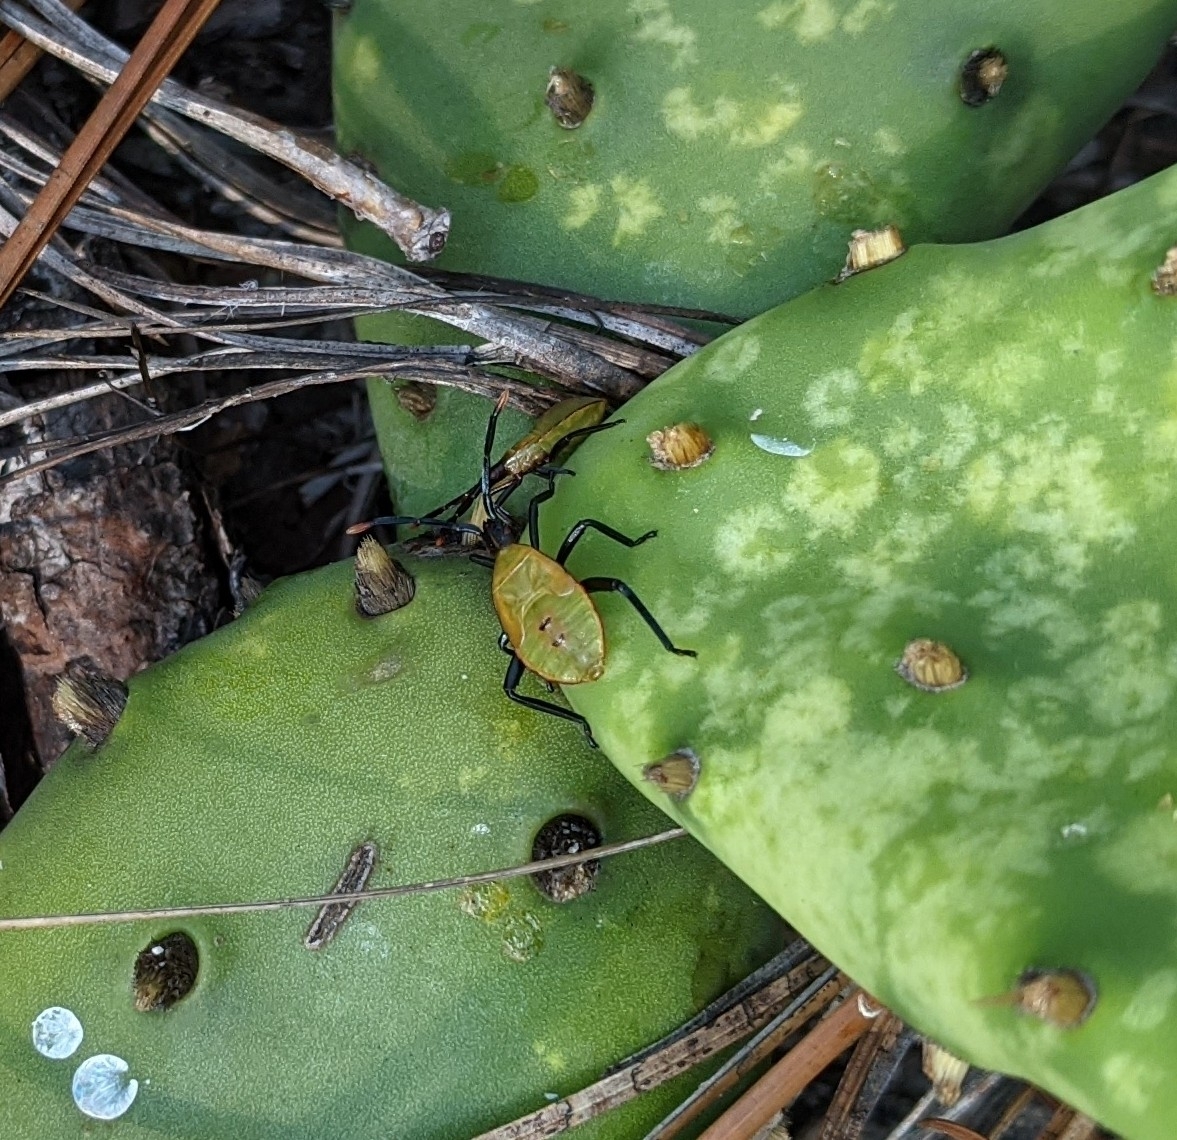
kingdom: Animalia
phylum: Arthropoda
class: Insecta
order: Hemiptera
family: Coreidae
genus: Chelinidea
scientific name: Chelinidea vittiger
